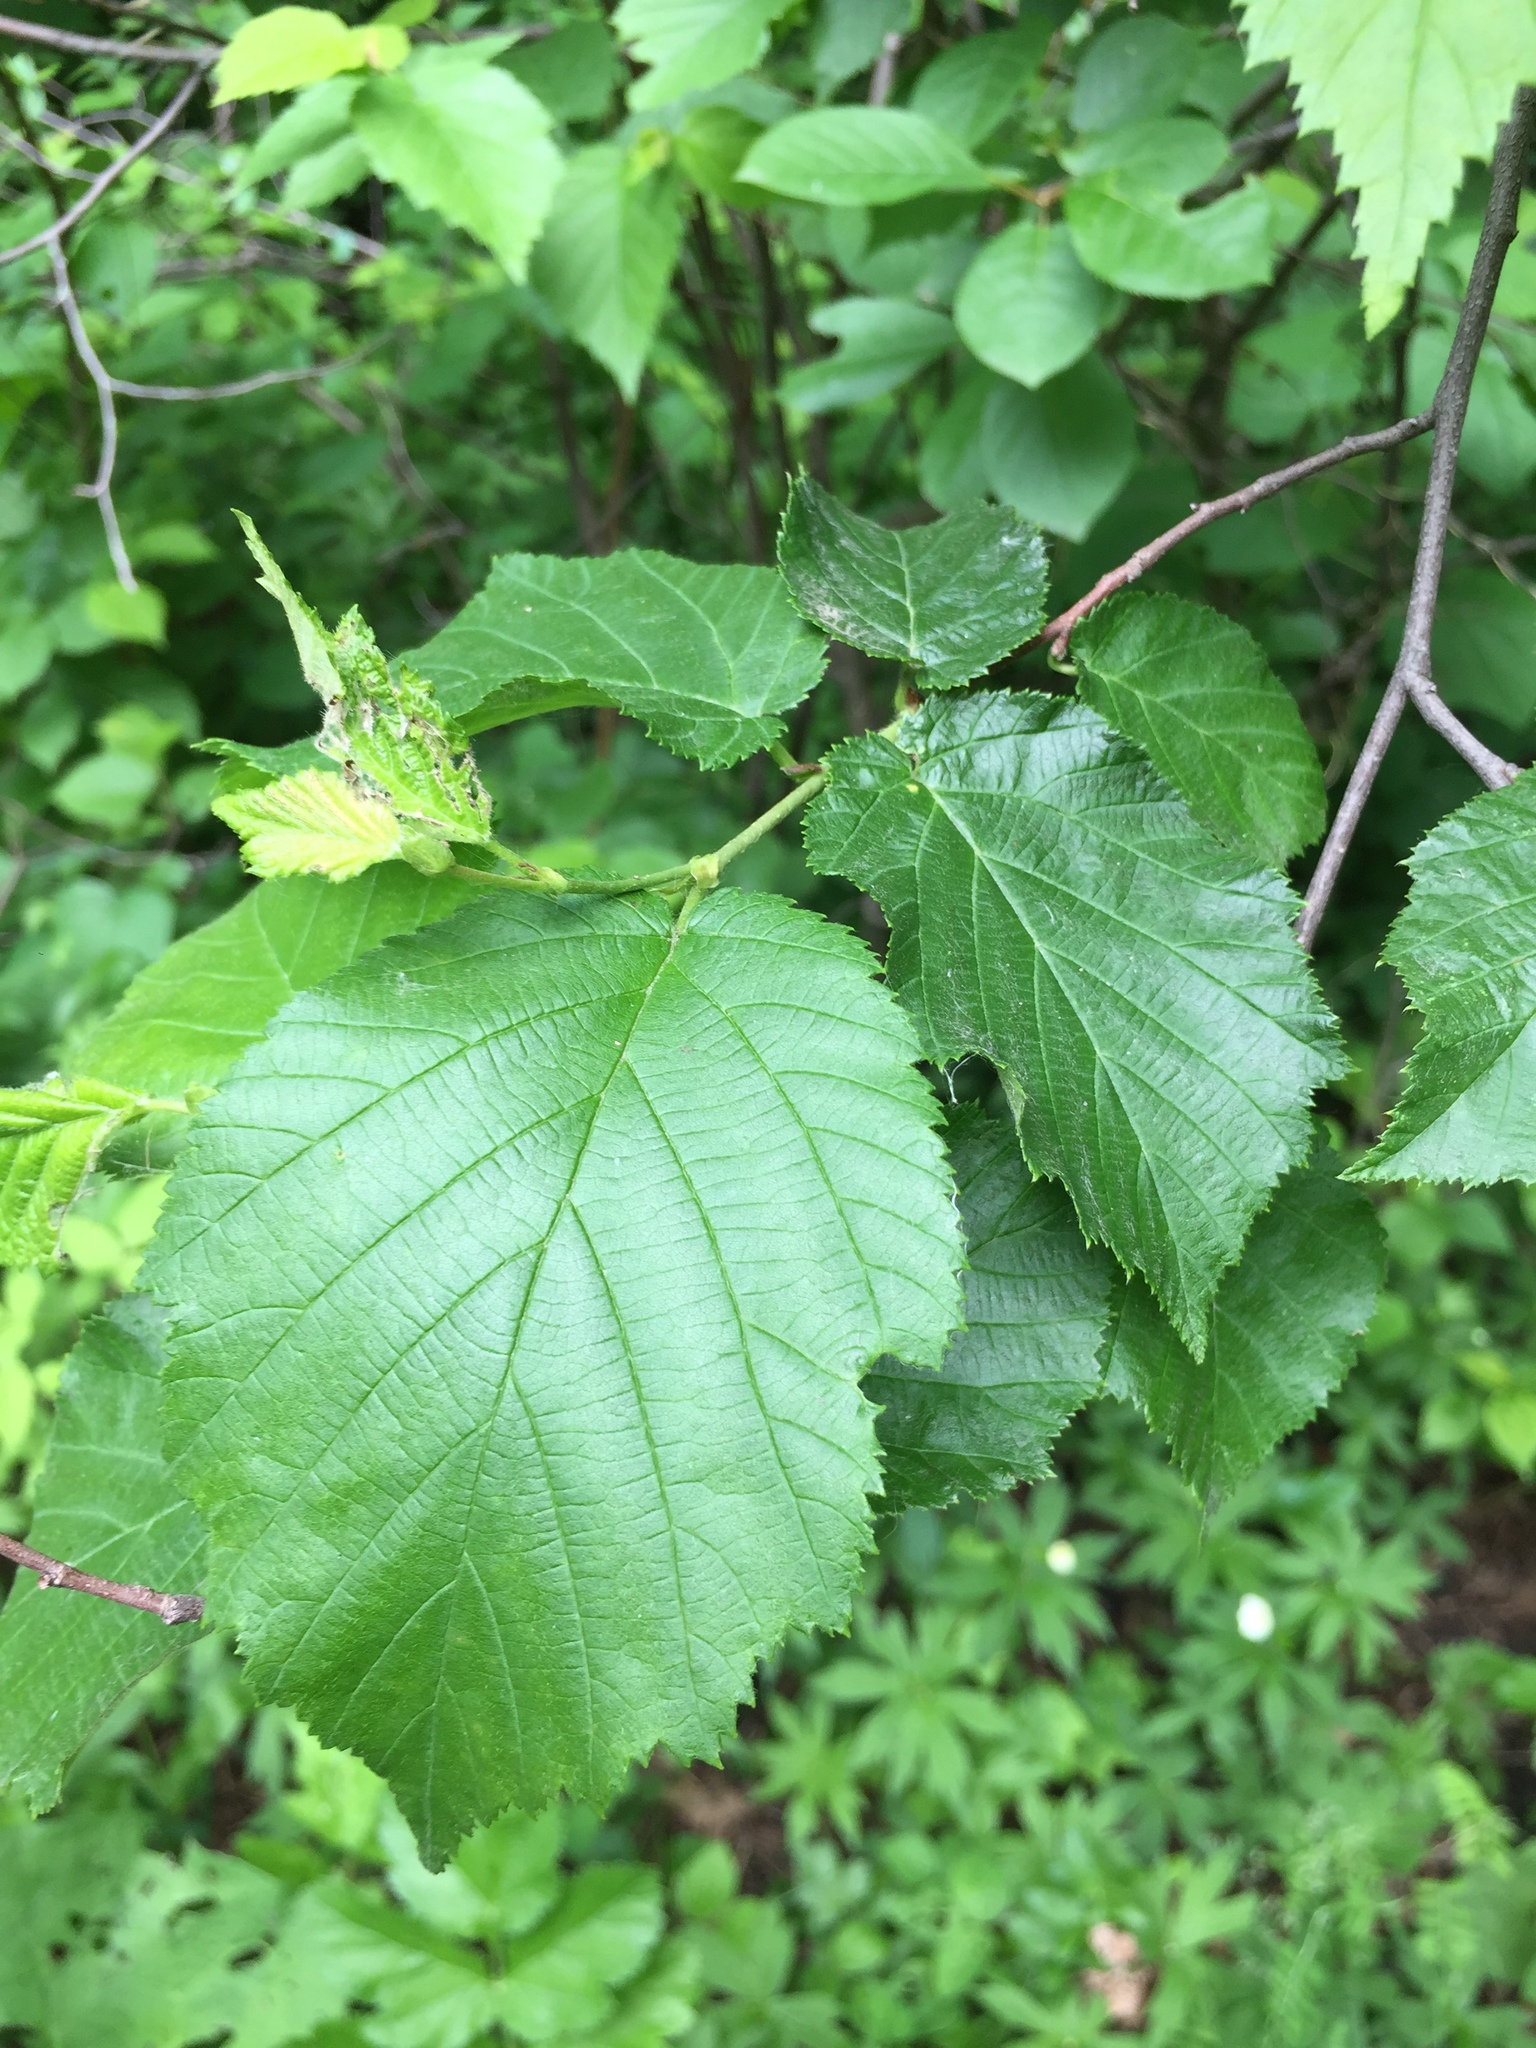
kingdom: Plantae
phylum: Tracheophyta
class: Magnoliopsida
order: Fagales
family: Betulaceae
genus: Corylus
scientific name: Corylus cornuta
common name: Beaked hazel
